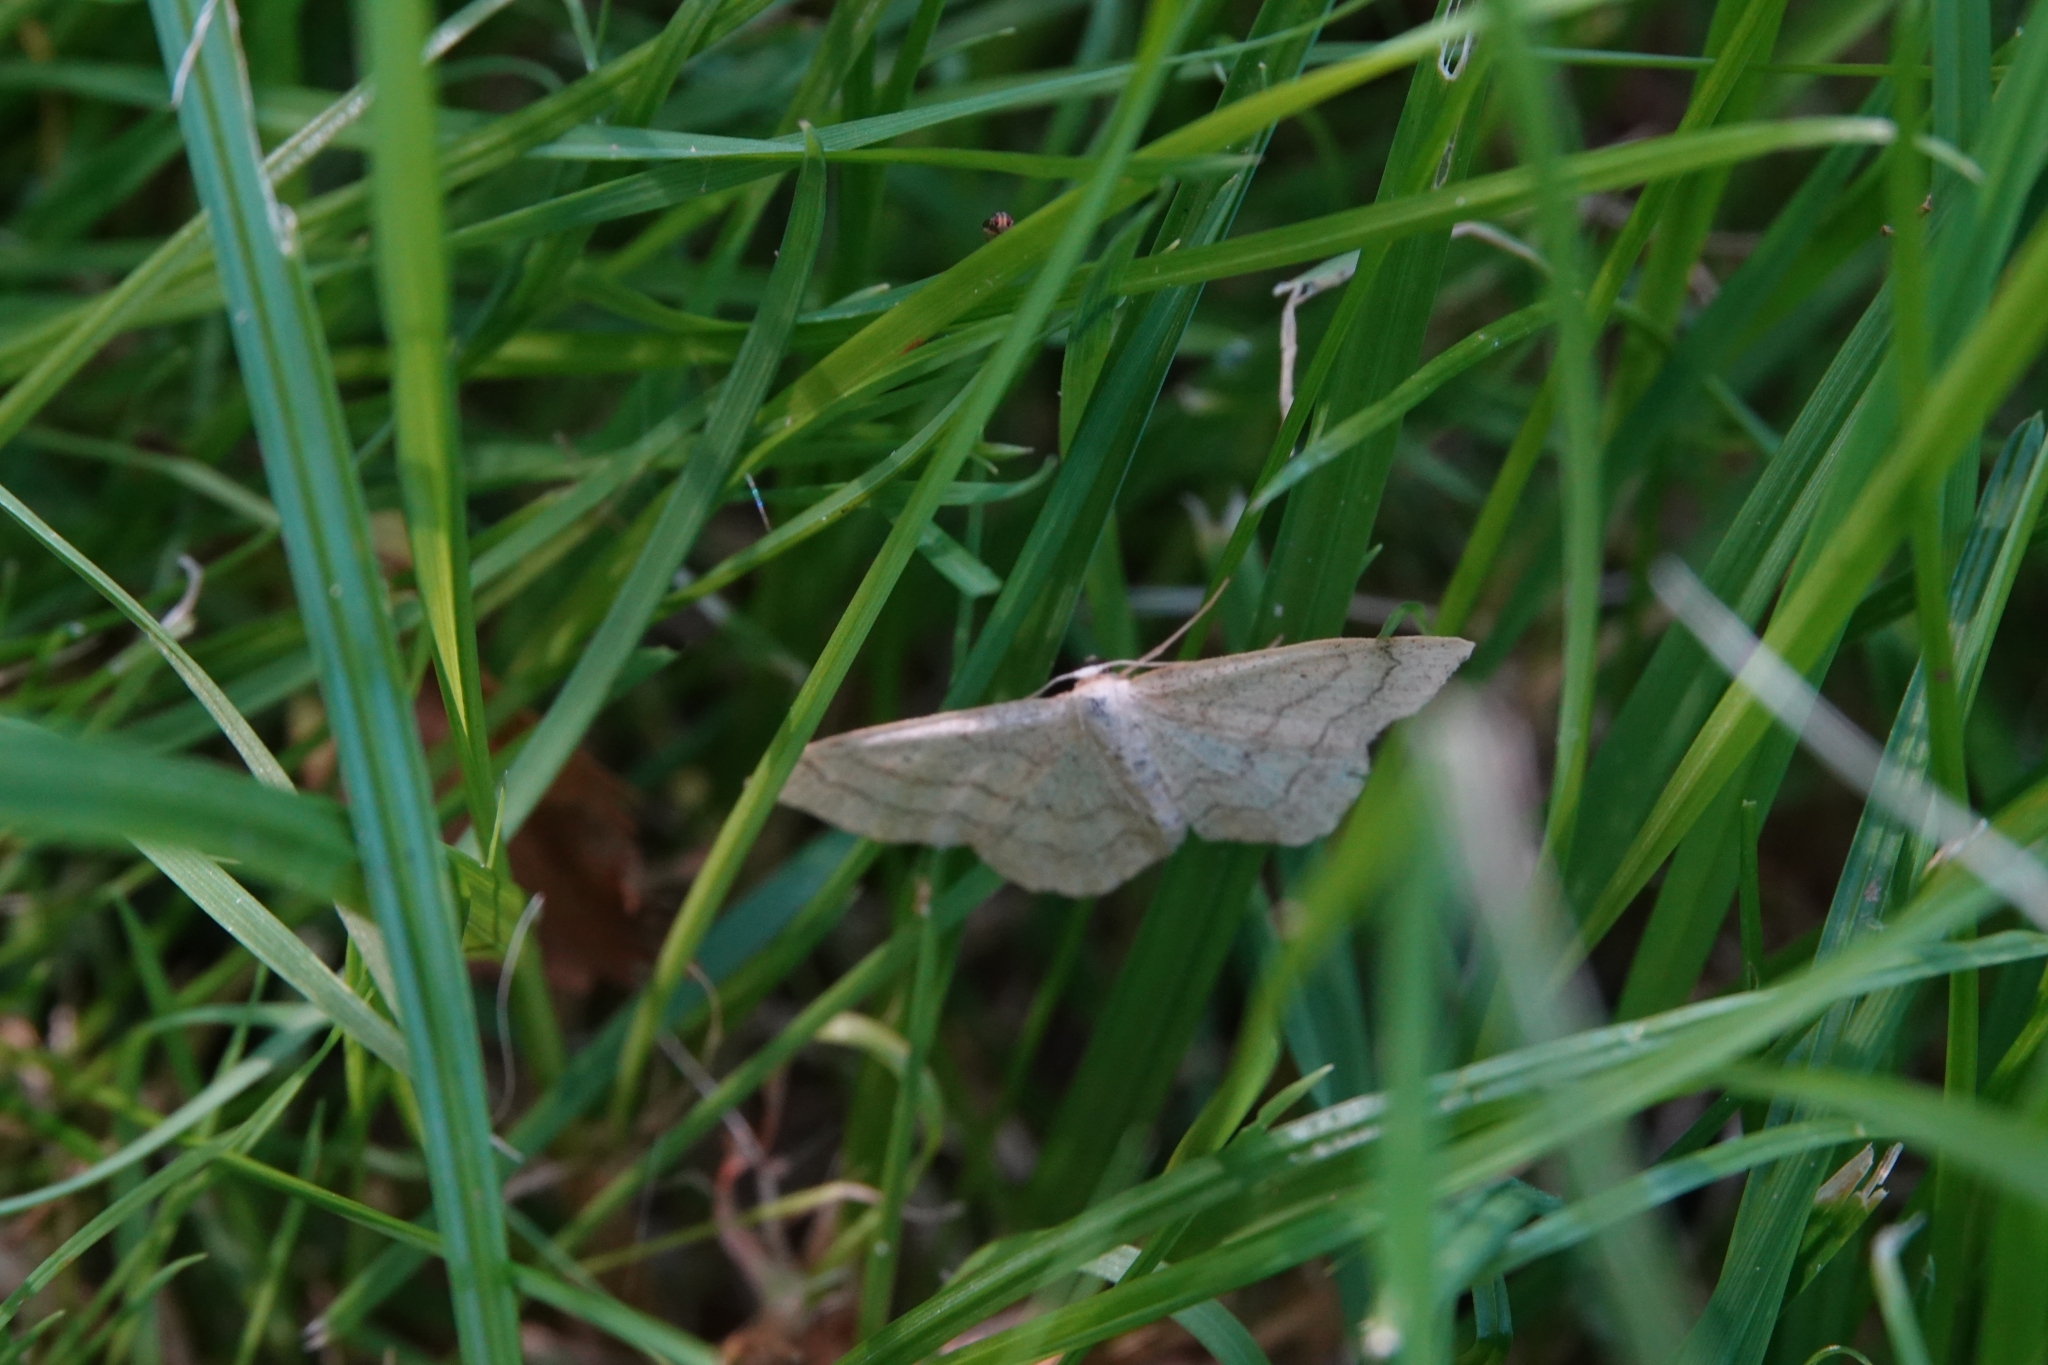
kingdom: Animalia
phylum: Arthropoda
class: Insecta
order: Lepidoptera
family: Geometridae
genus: Idaea
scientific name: Idaea aversata
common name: Riband wave
